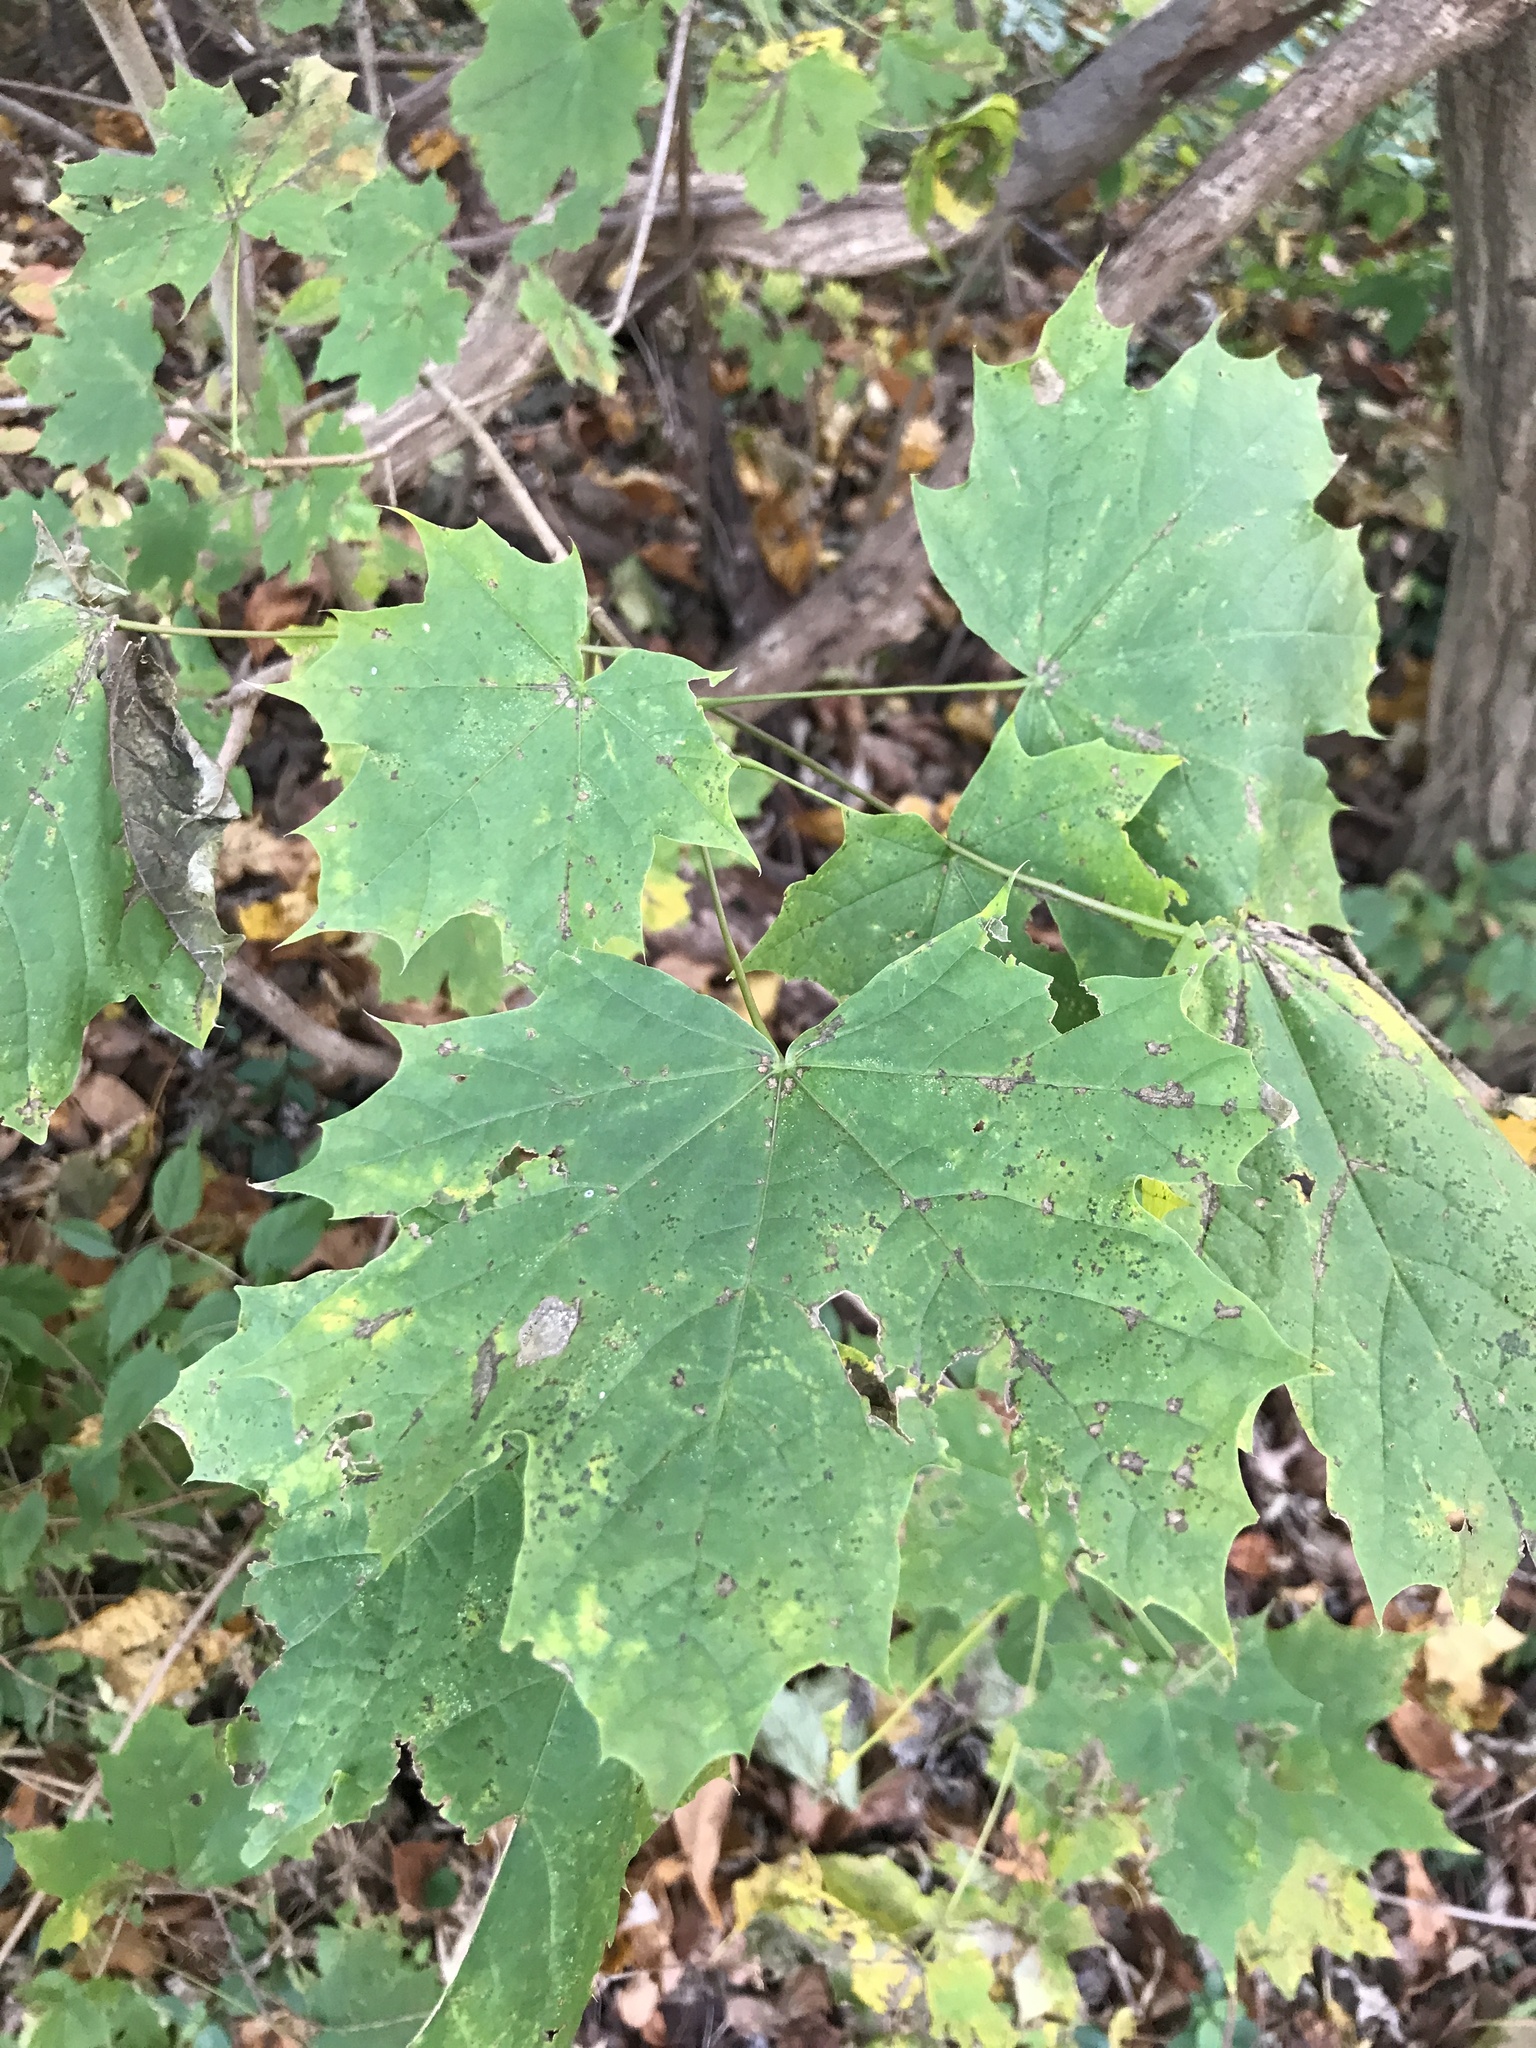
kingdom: Plantae
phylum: Tracheophyta
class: Magnoliopsida
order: Sapindales
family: Sapindaceae
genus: Acer
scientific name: Acer platanoides
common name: Norway maple
